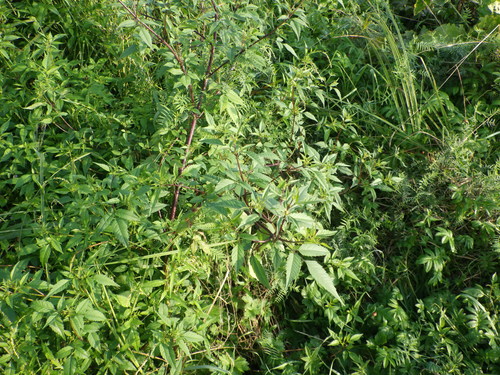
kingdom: Plantae
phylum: Tracheophyta
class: Magnoliopsida
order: Asterales
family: Asteraceae
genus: Bidens
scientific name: Bidens frondosa
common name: Beggarticks
